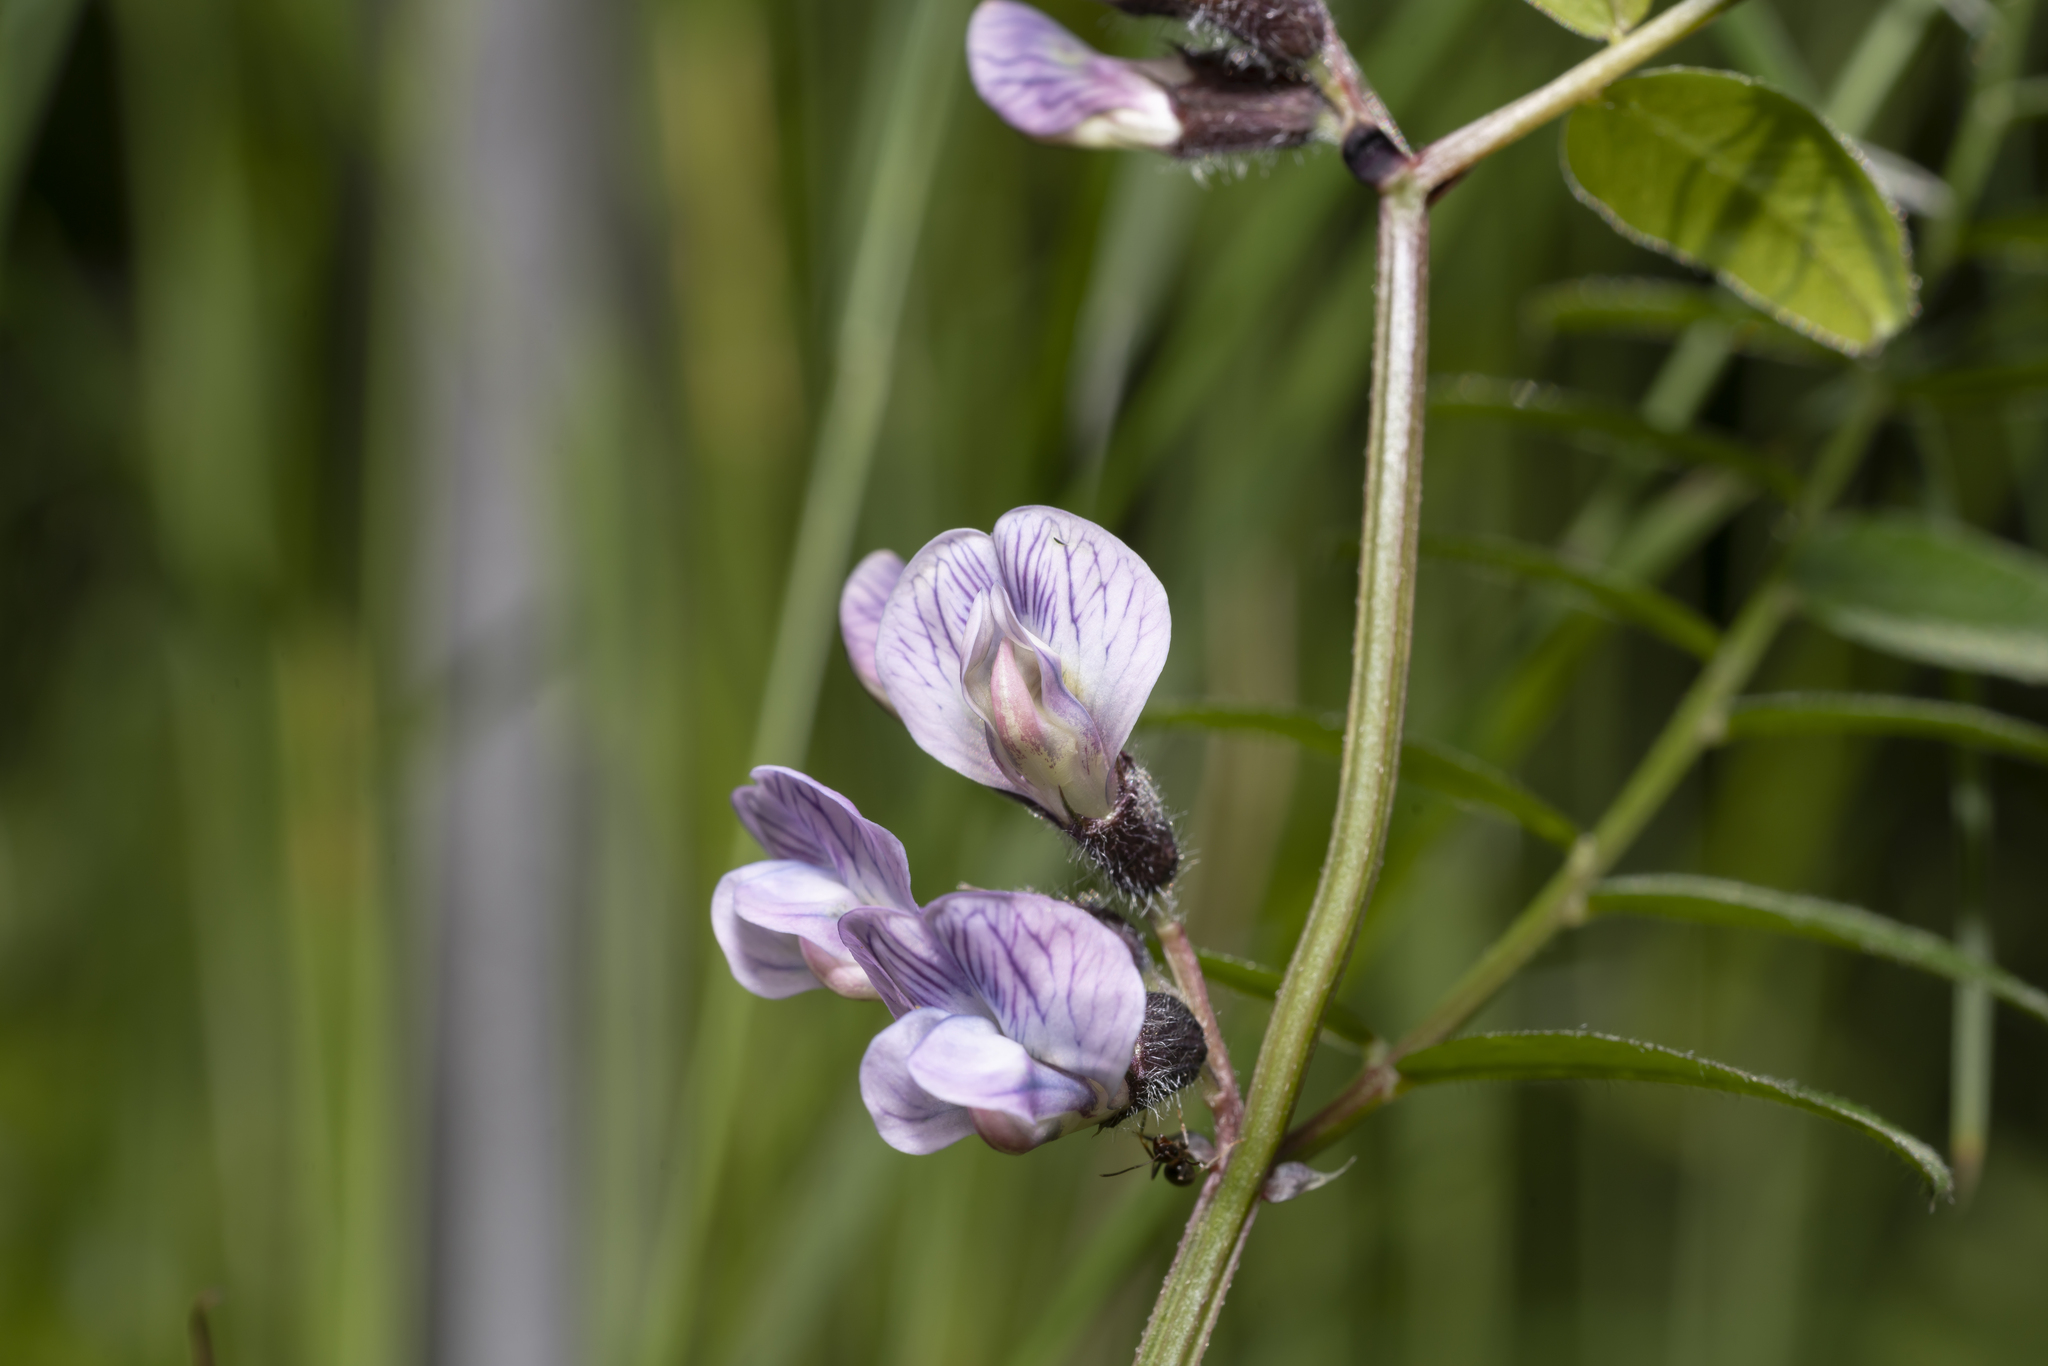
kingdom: Plantae
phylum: Tracheophyta
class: Magnoliopsida
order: Fabales
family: Fabaceae
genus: Vicia
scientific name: Vicia sepium
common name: Bush vetch
